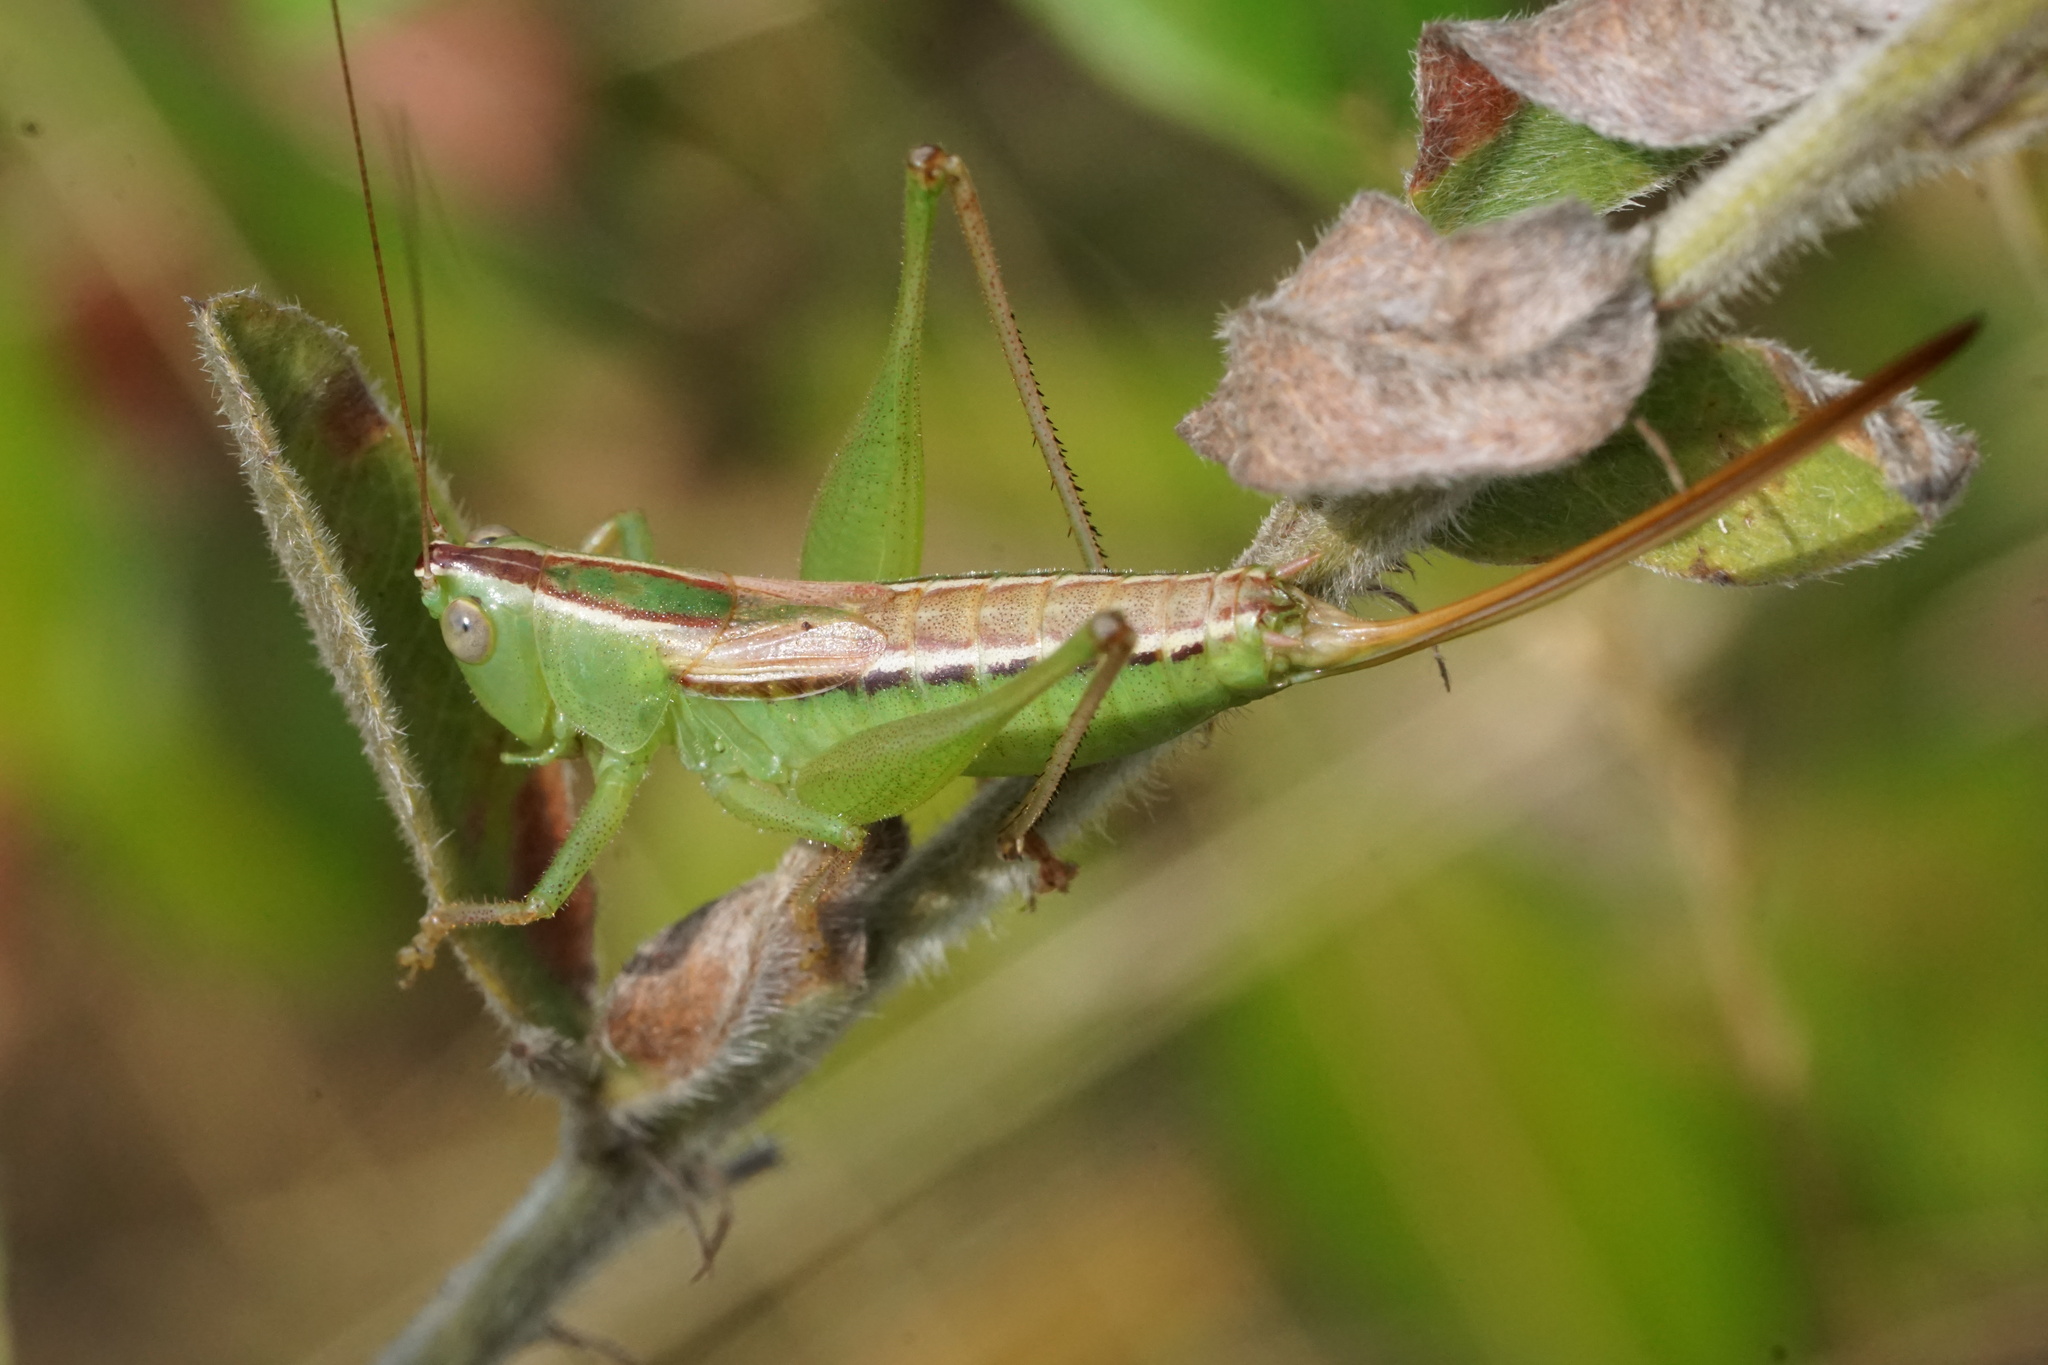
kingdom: Animalia
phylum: Arthropoda
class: Insecta
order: Orthoptera
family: Tettigoniidae
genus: Conocephalus
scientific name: Conocephalus strictus
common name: Straight-lanced katydid
